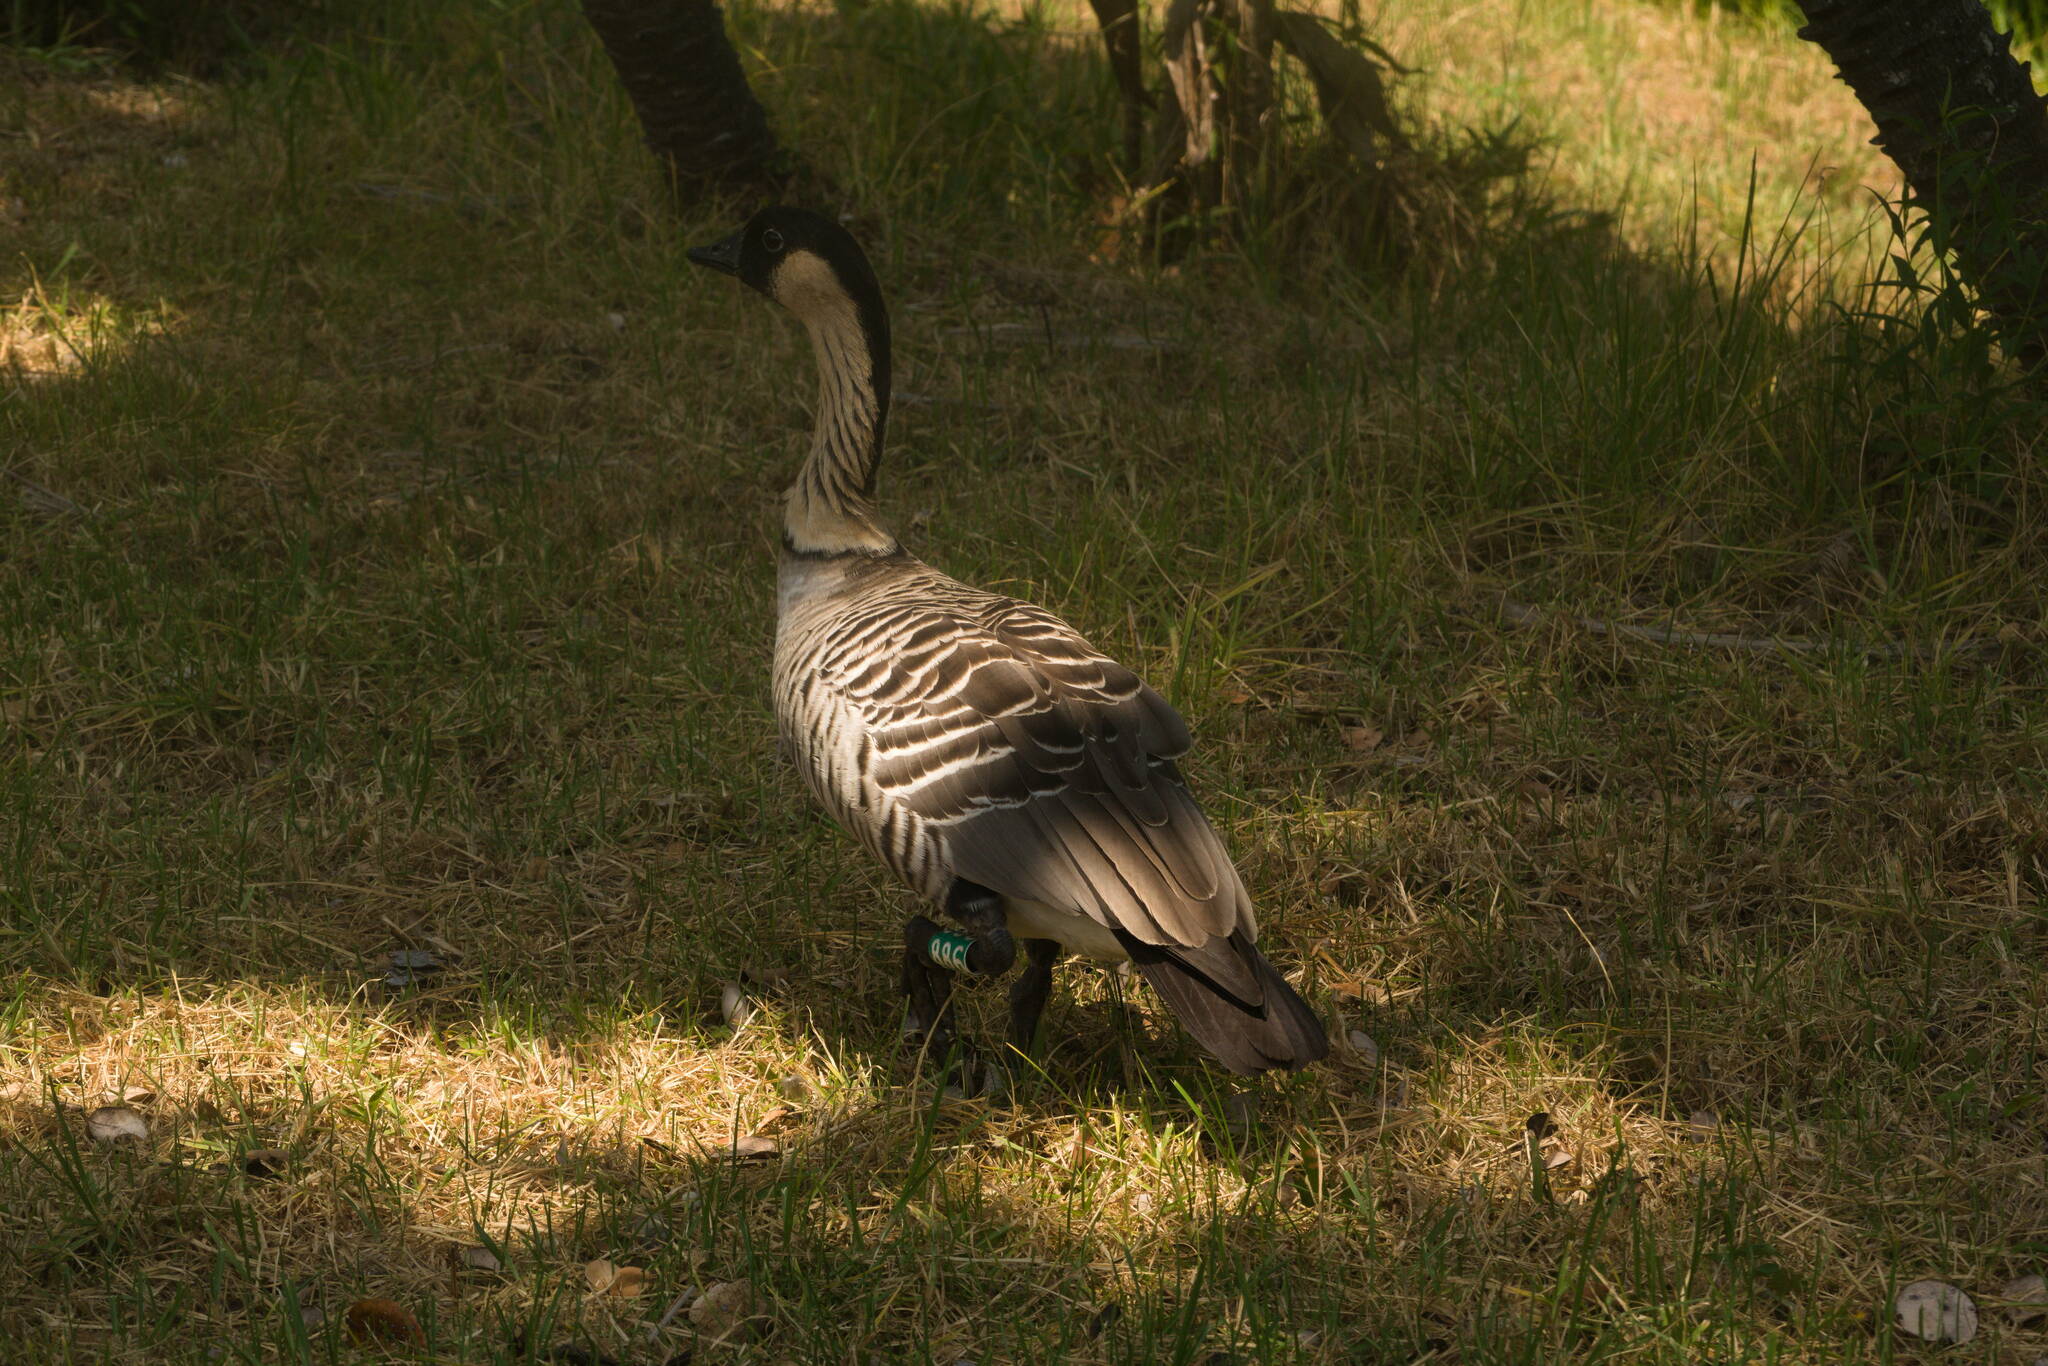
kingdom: Animalia
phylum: Chordata
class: Aves
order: Anseriformes
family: Anatidae
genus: Branta
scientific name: Branta sandvicensis
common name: Nene
